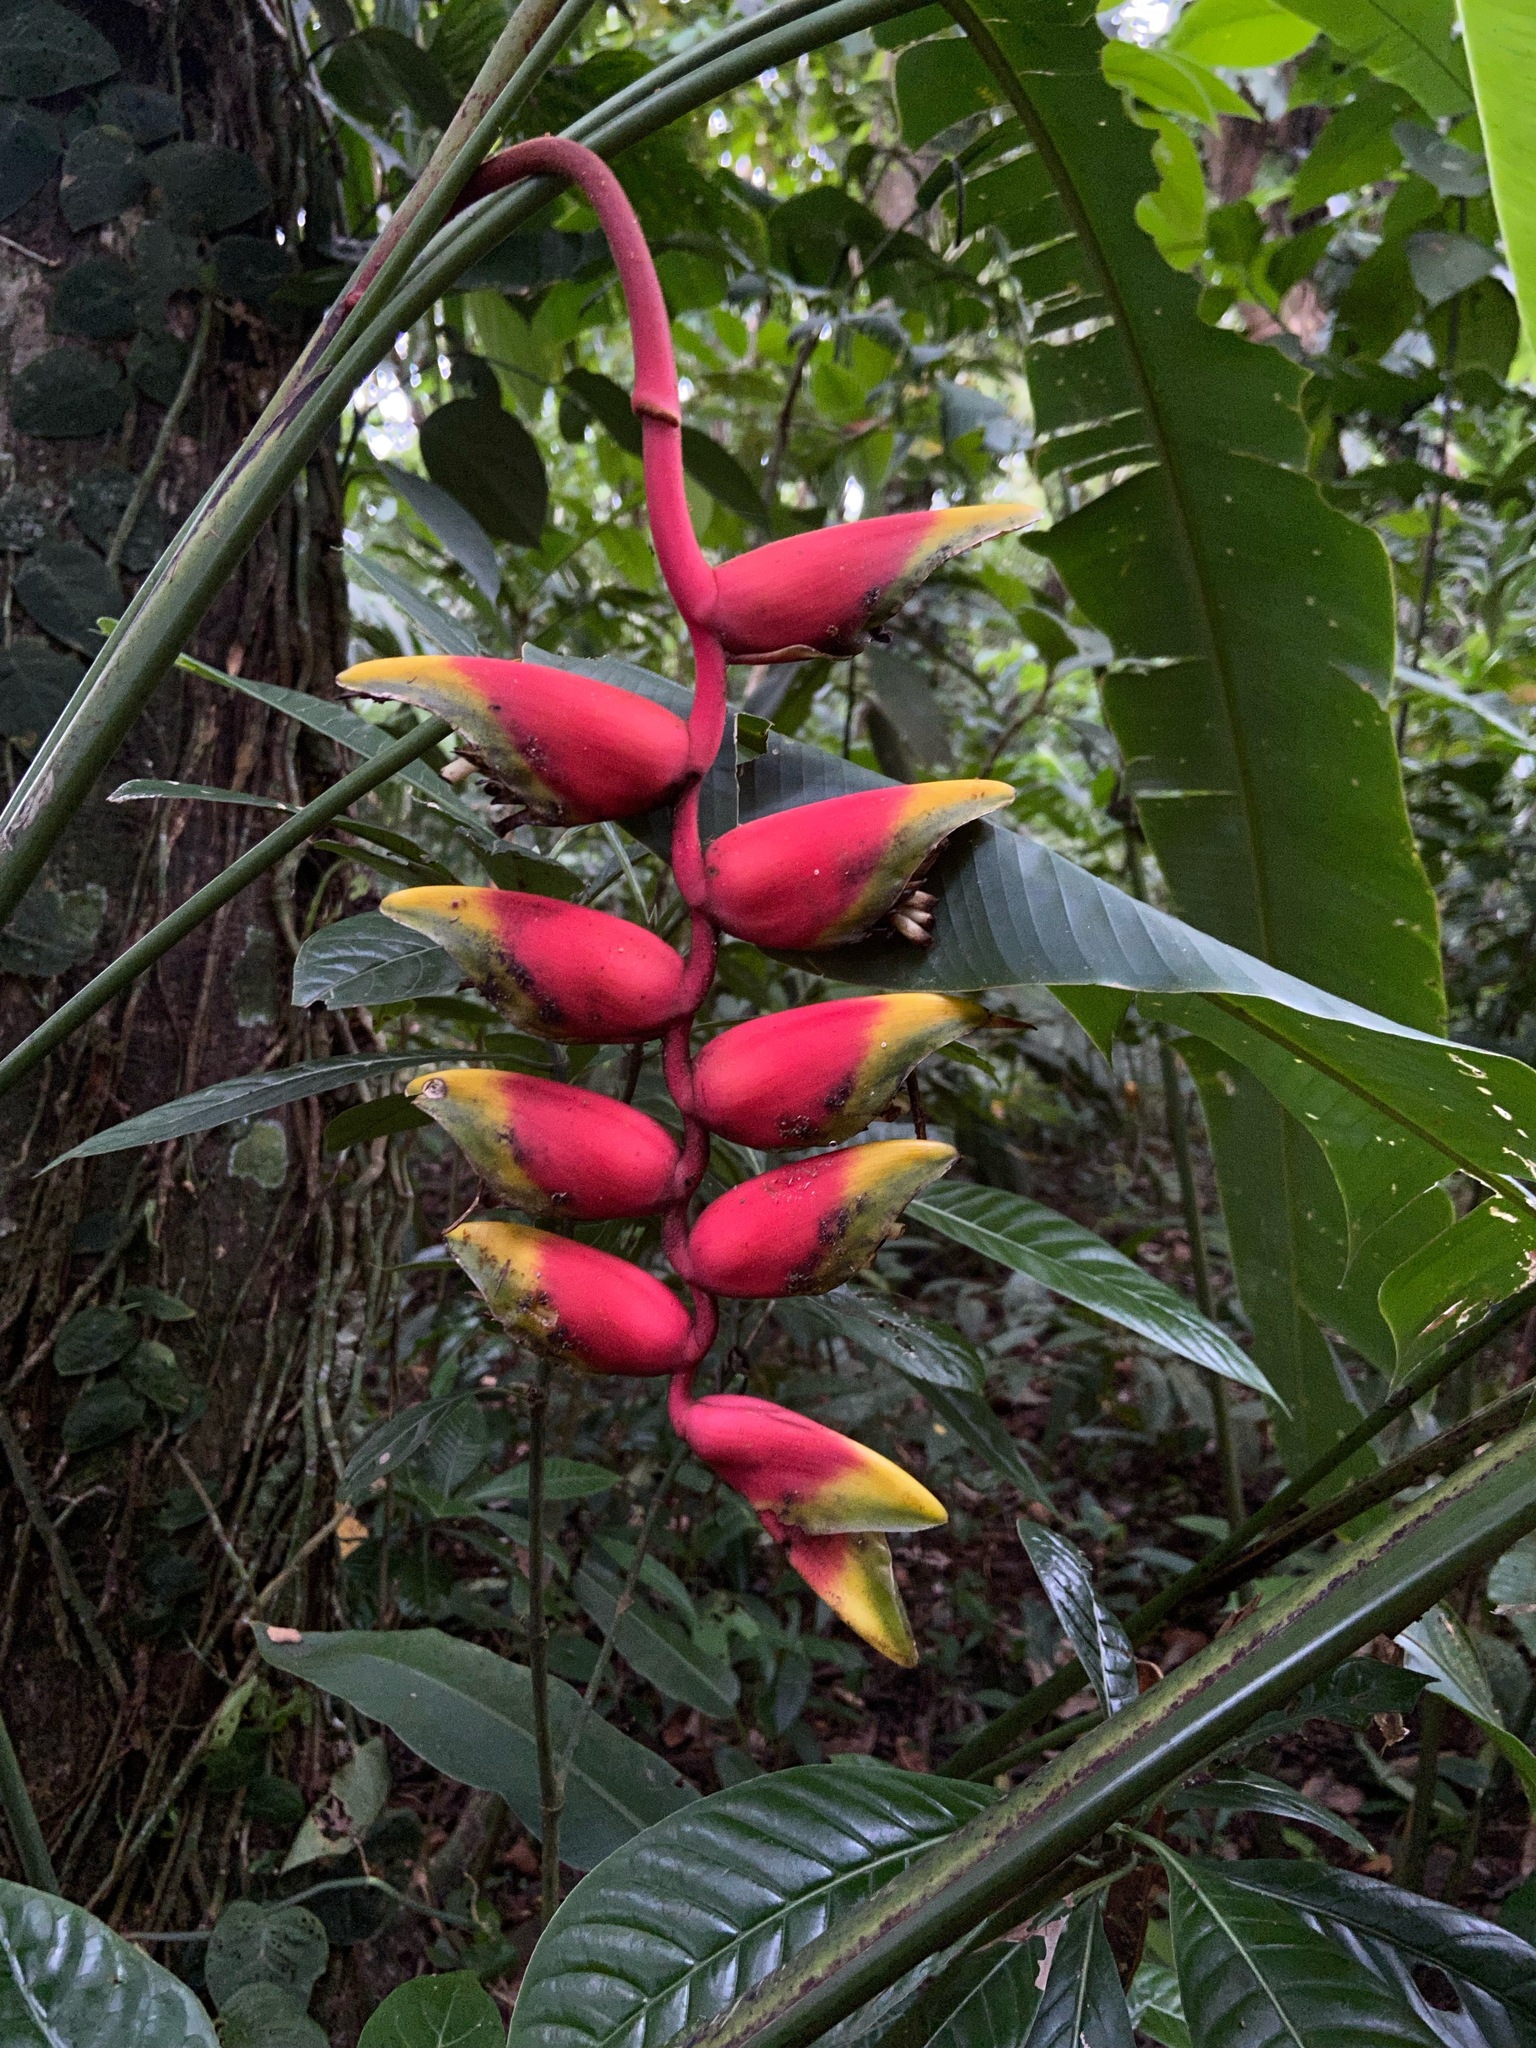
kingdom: Plantae
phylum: Tracheophyta
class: Liliopsida
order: Zingiberales
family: Heliconiaceae
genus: Heliconia
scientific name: Heliconia rostrata
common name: False bird of paradise
